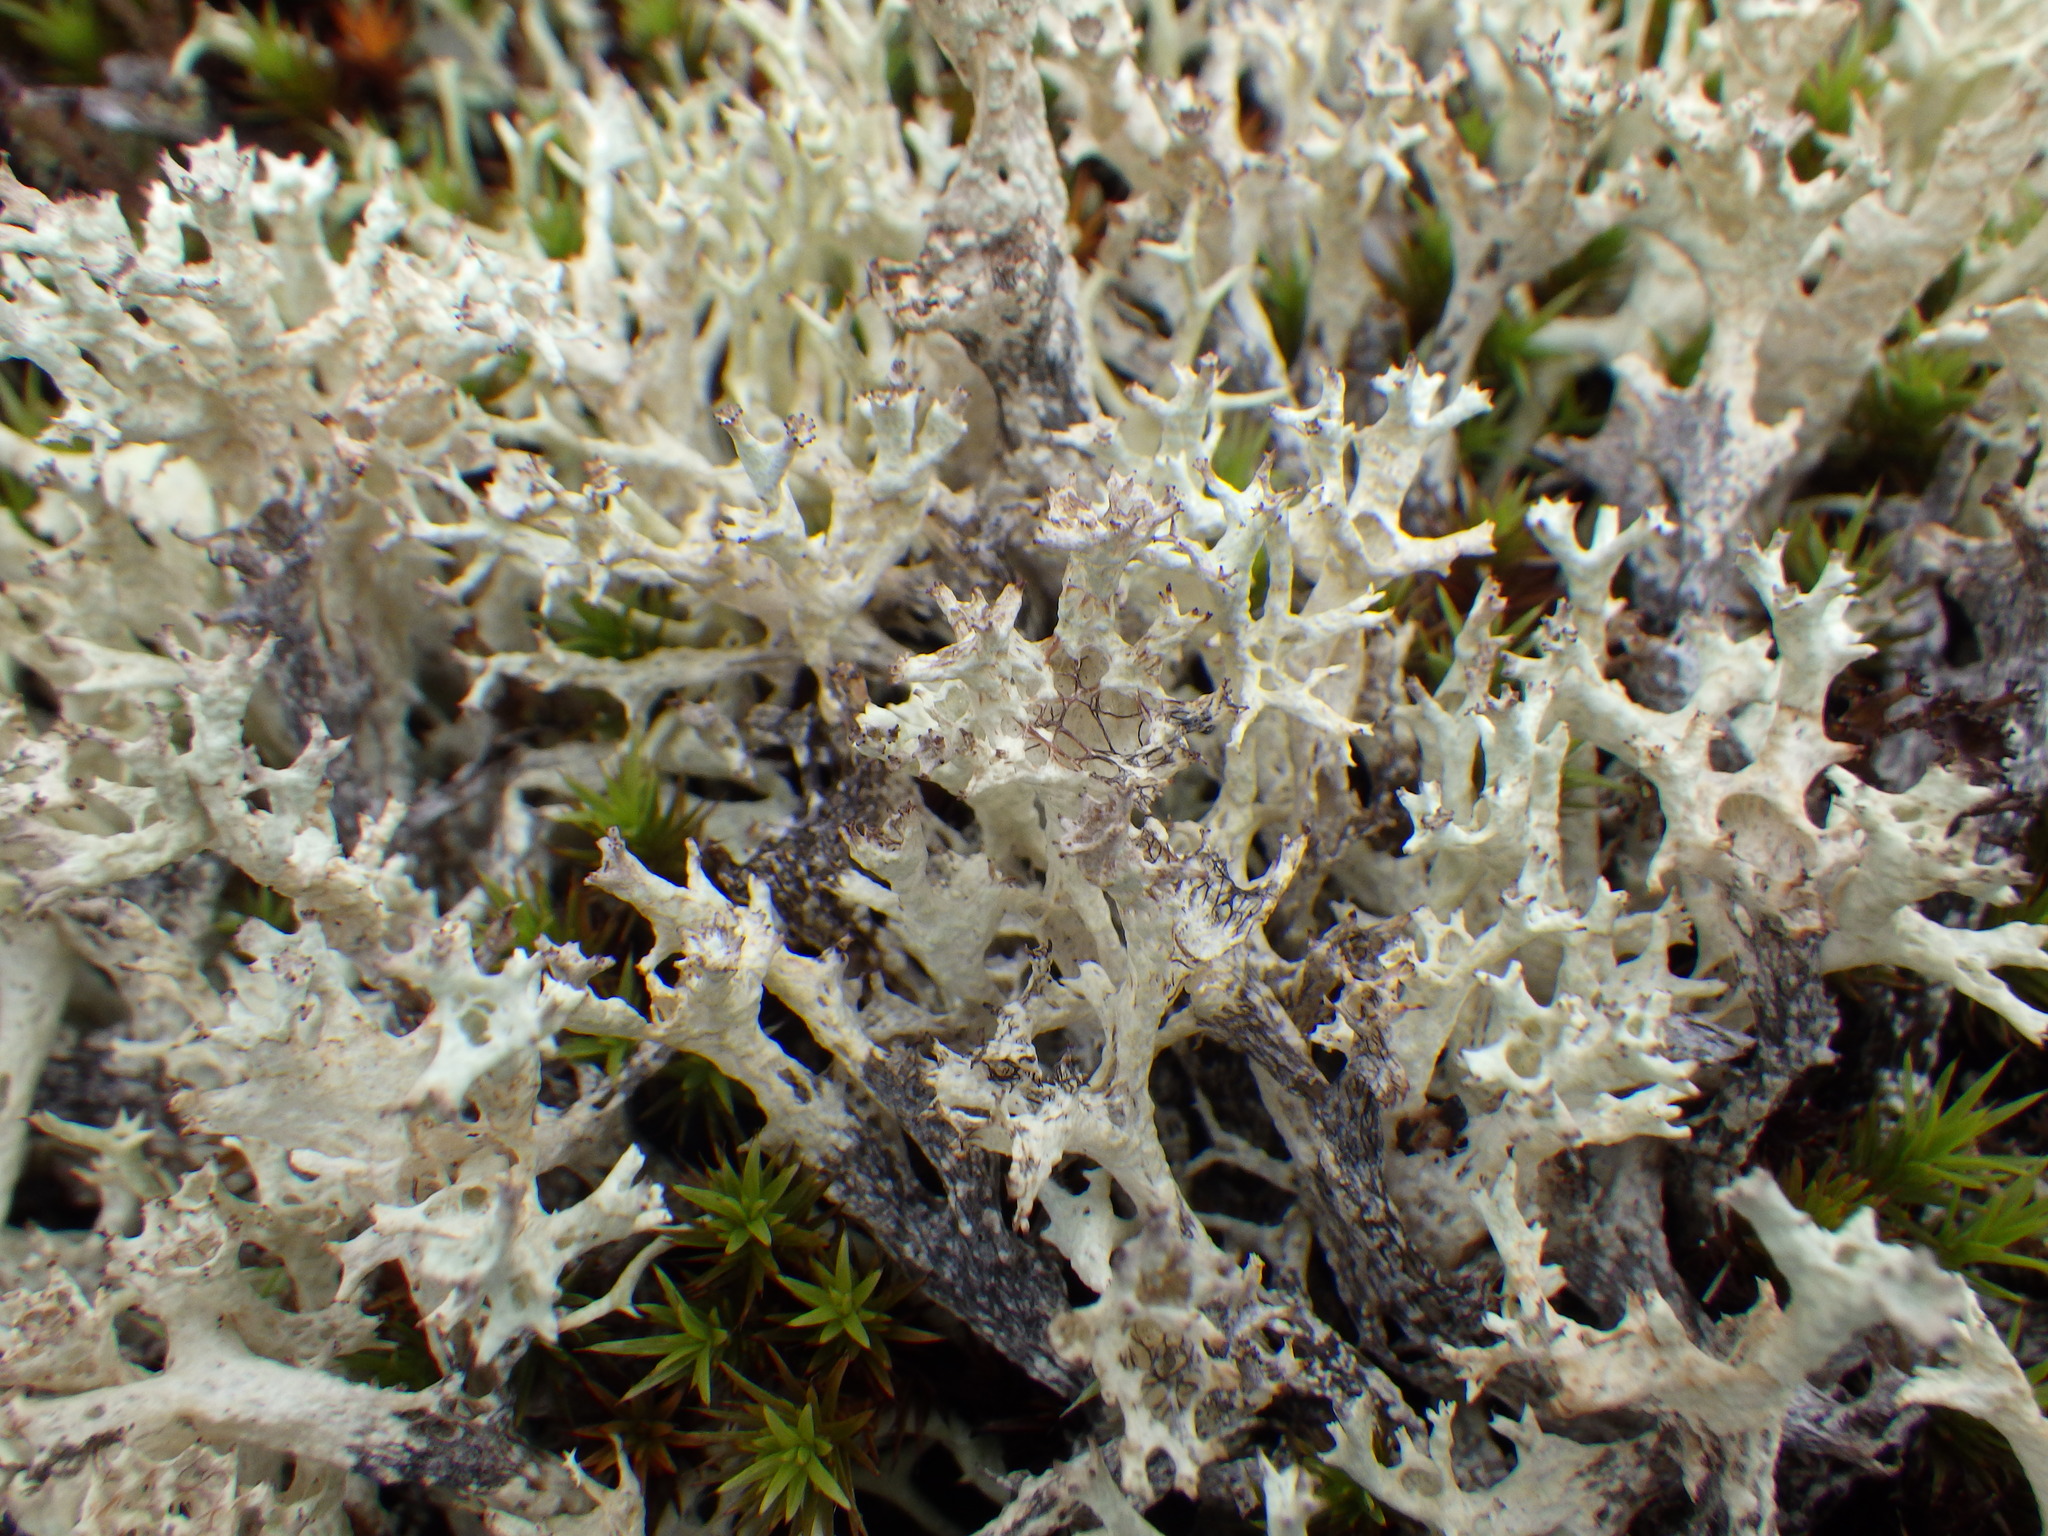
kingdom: Fungi
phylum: Ascomycota
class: Lecanoromycetes
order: Lecanorales
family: Cladoniaceae
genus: Cladonia
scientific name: Cladonia boryi
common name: Fishnet cladonia
